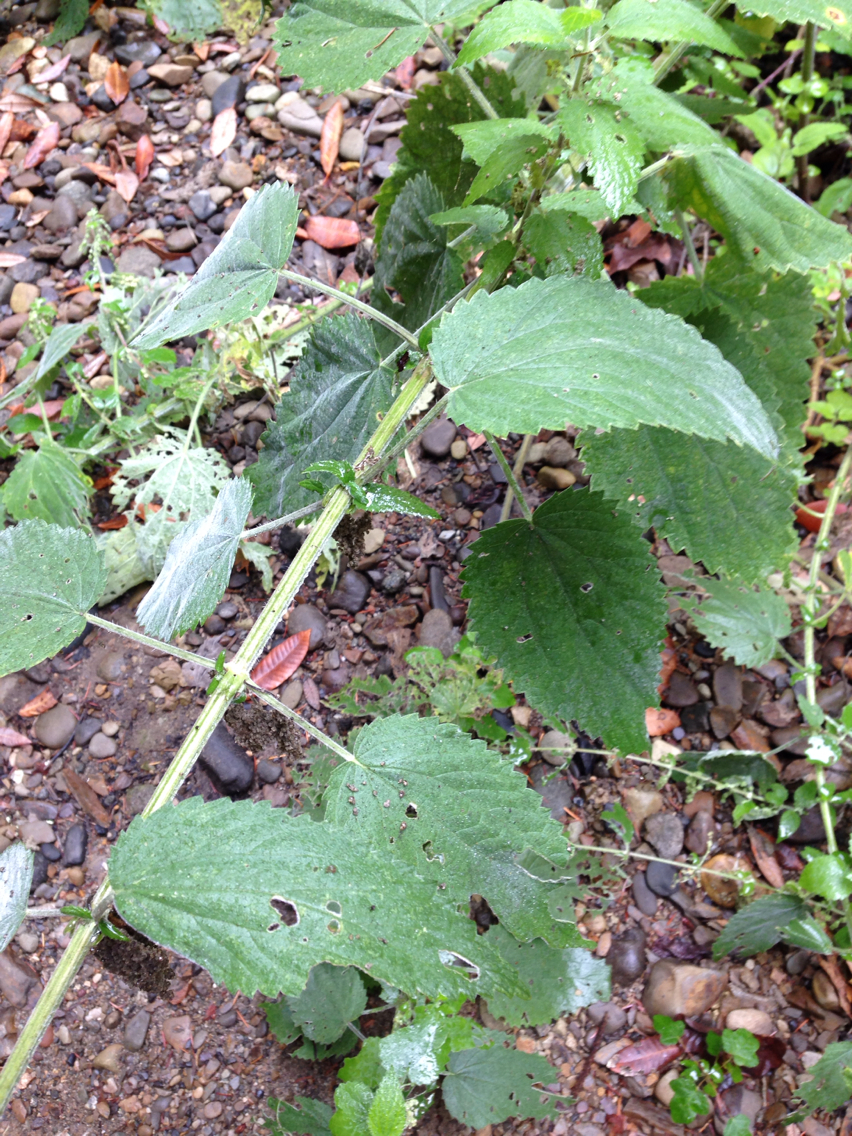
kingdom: Plantae
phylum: Tracheophyta
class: Magnoliopsida
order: Rosales
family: Urticaceae
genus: Urtica
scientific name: Urtica gracilis
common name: Slender stinging nettle
